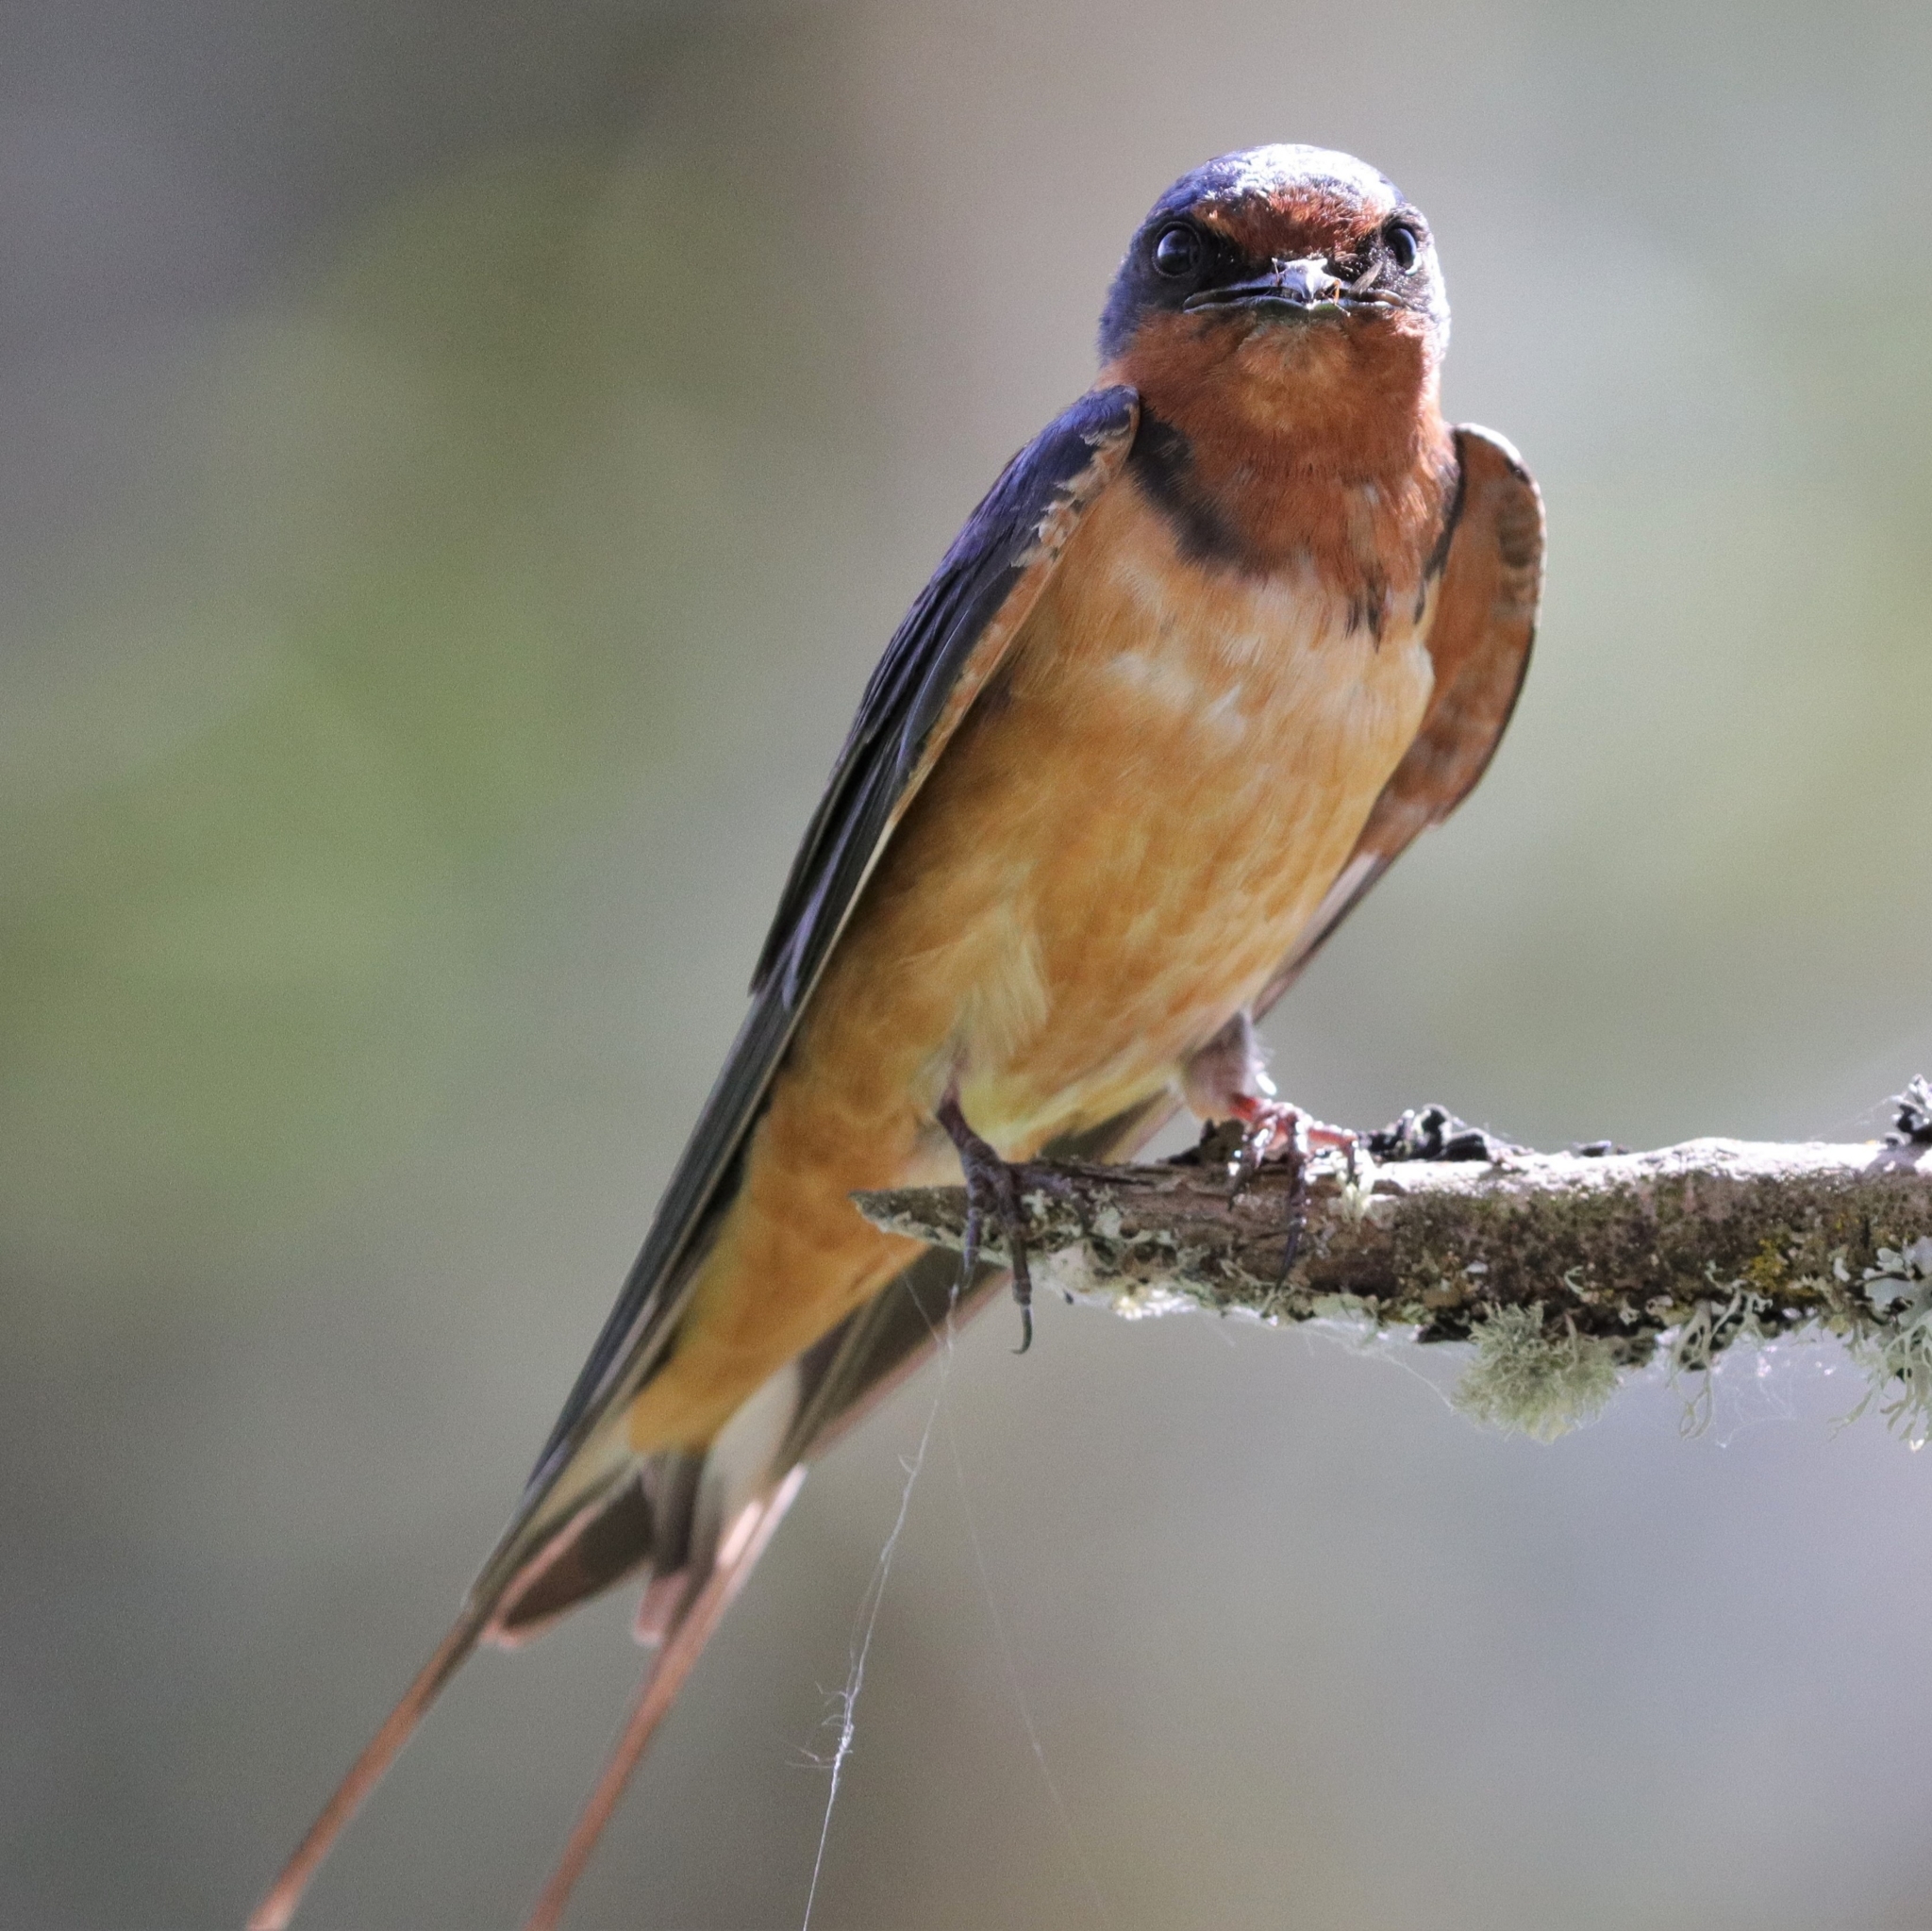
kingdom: Animalia
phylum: Chordata
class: Aves
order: Passeriformes
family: Hirundinidae
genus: Hirundo
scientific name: Hirundo rustica
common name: Barn swallow
